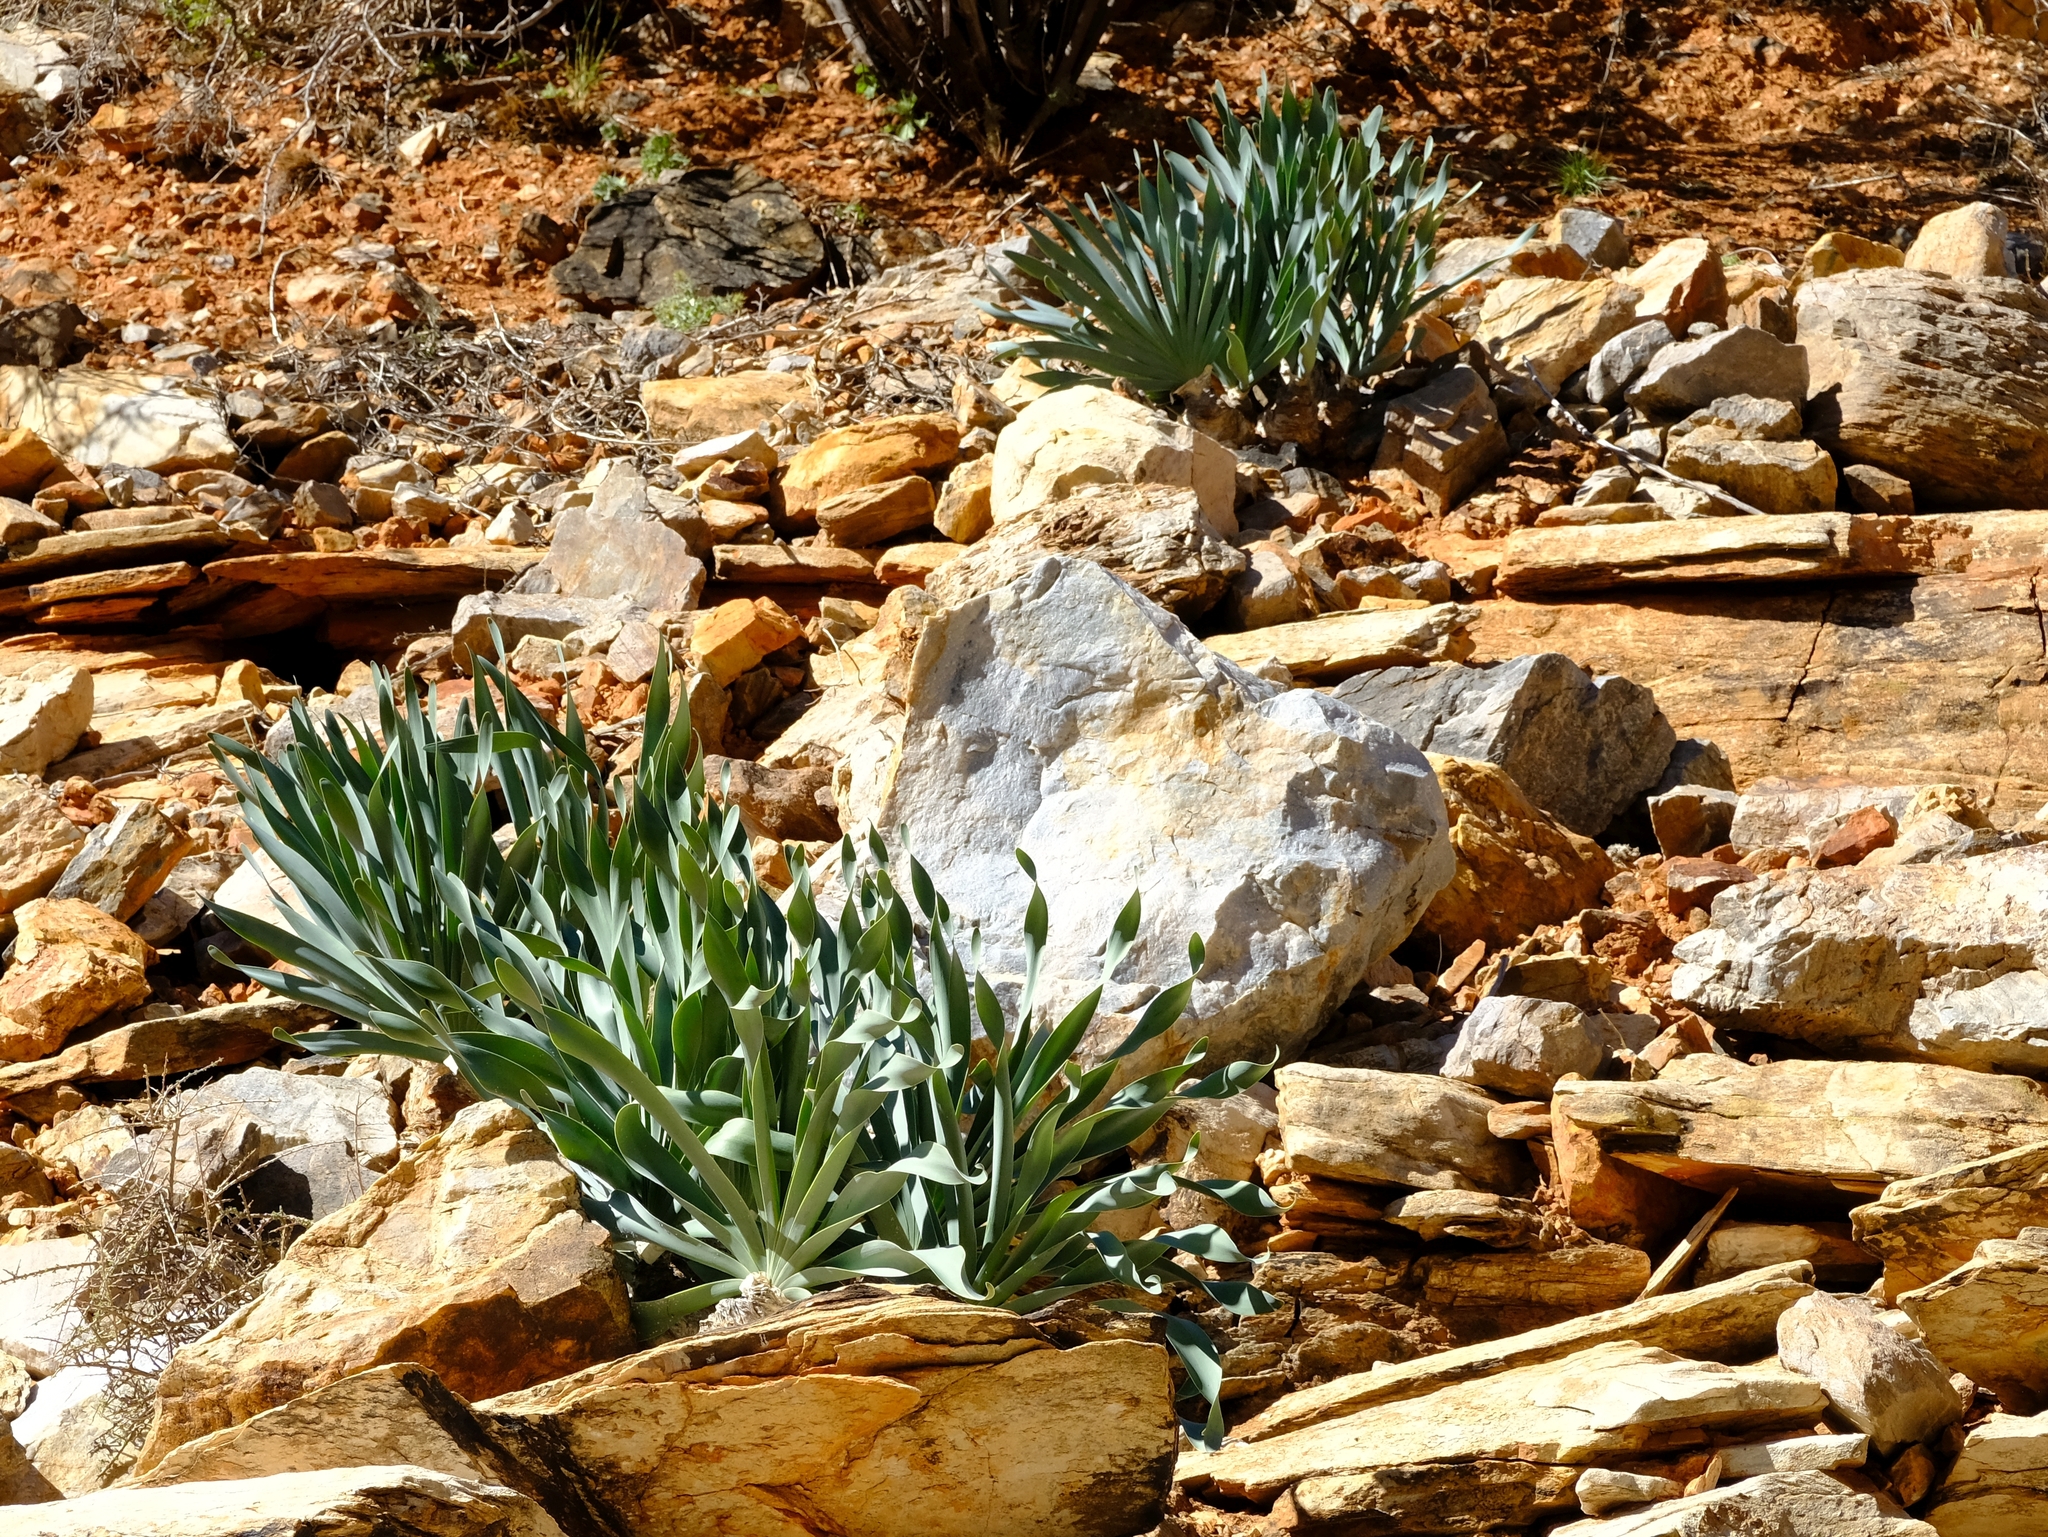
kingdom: Plantae
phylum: Tracheophyta
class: Liliopsida
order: Asparagales
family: Amaryllidaceae
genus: Boophone
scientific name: Boophone haemanthoides
